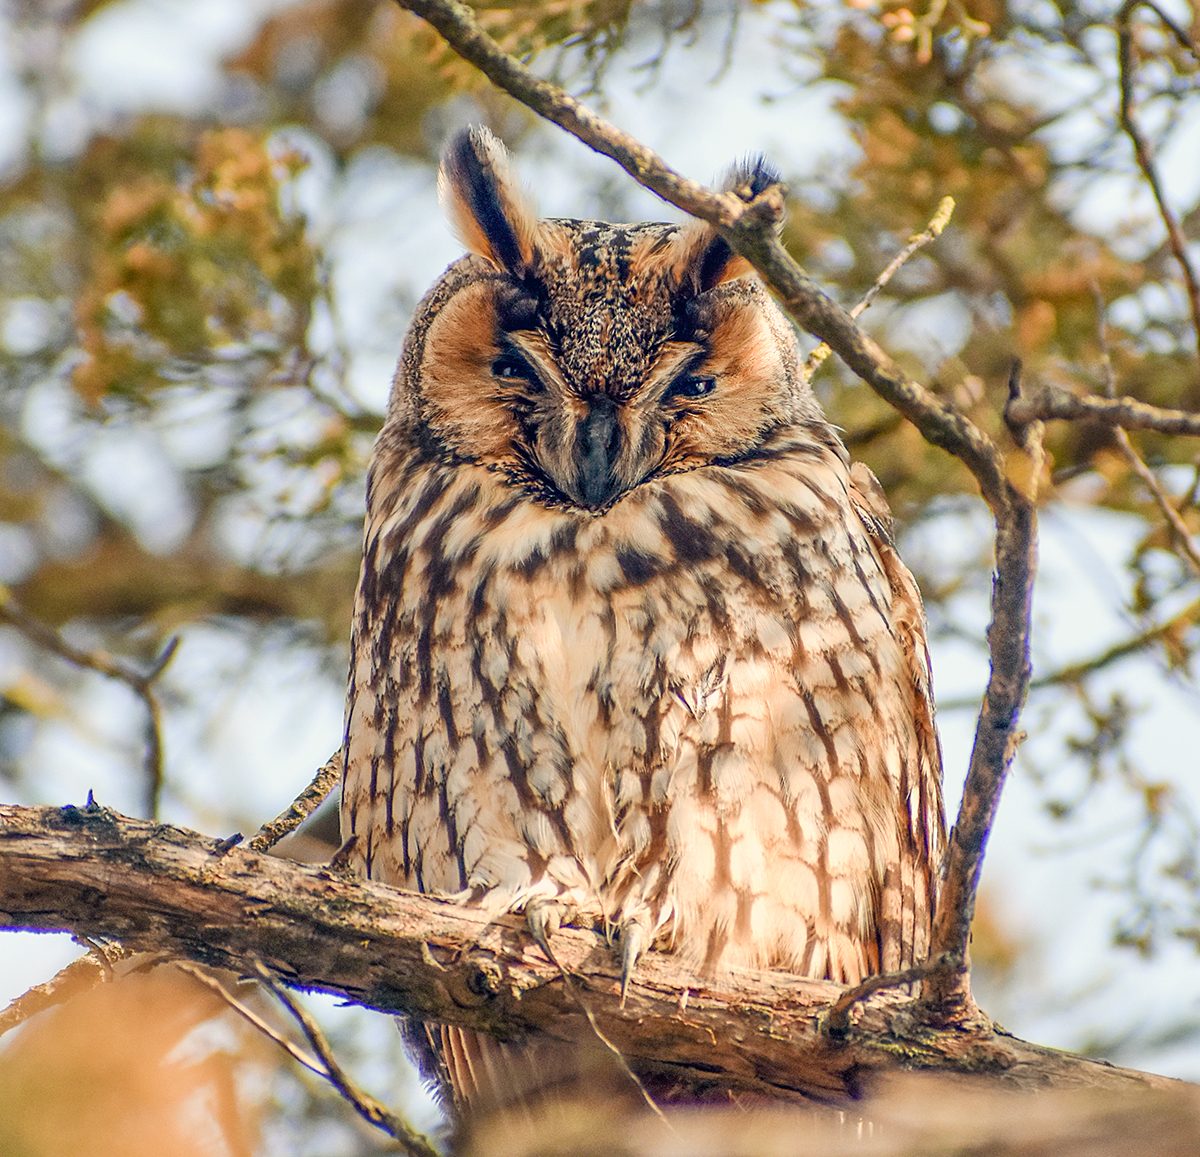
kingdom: Animalia
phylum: Chordata
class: Aves
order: Strigiformes
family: Strigidae
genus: Asio
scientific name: Asio otus
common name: Long-eared owl
